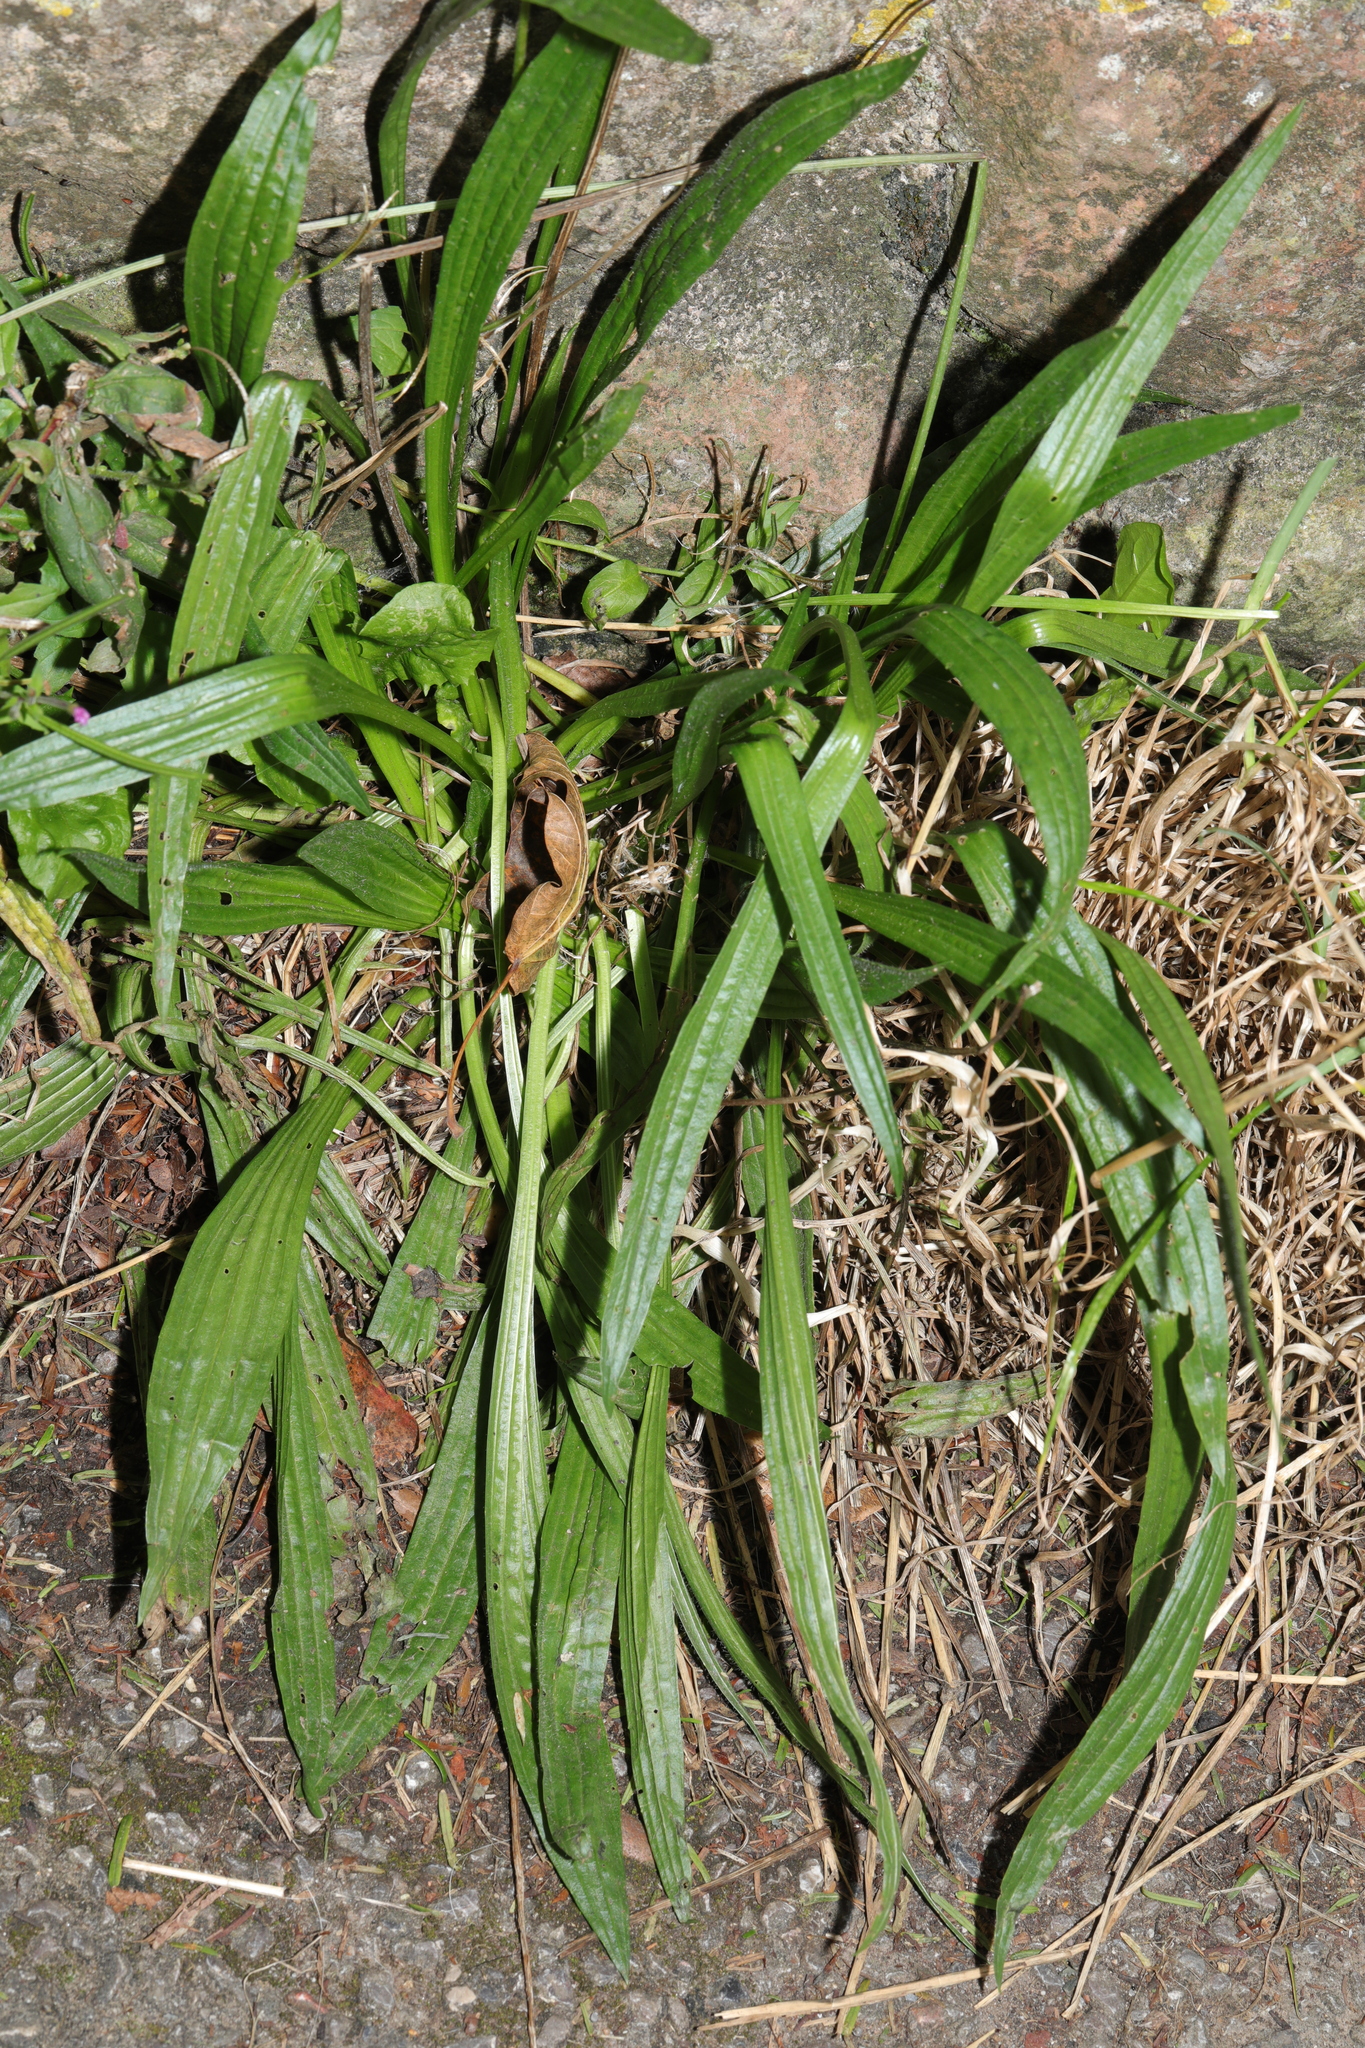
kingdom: Plantae
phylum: Tracheophyta
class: Magnoliopsida
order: Lamiales
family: Plantaginaceae
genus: Plantago
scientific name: Plantago lanceolata
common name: Ribwort plantain
